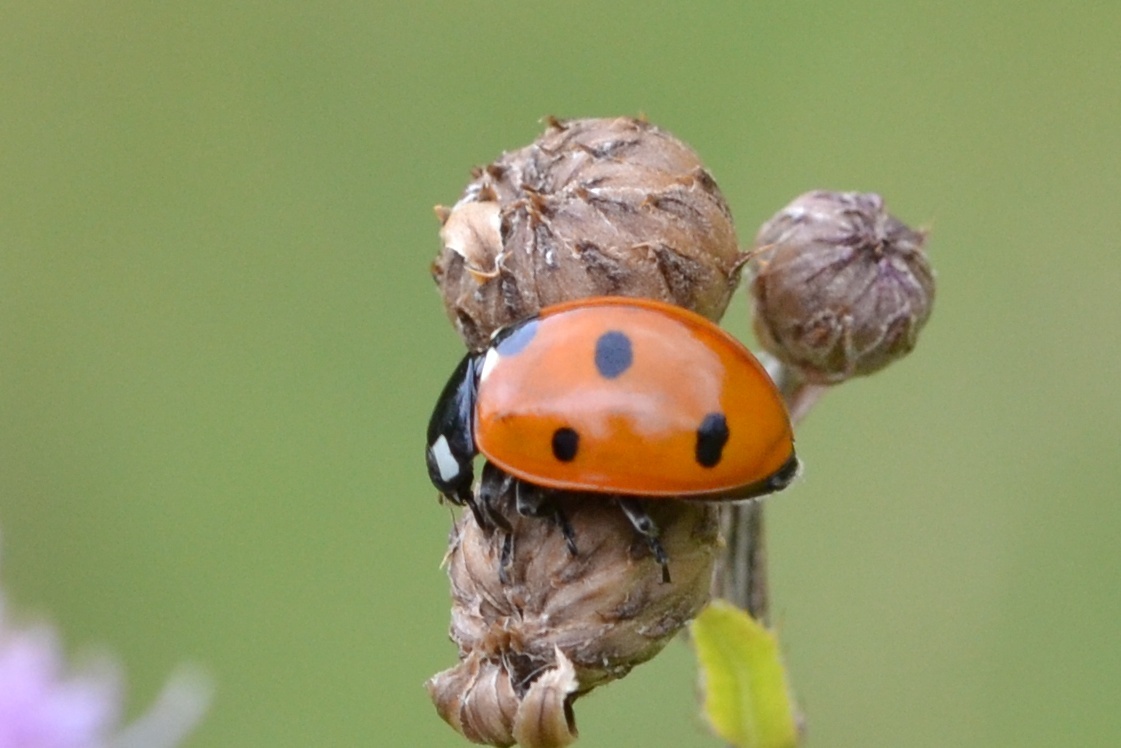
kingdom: Animalia
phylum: Arthropoda
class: Insecta
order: Coleoptera
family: Coccinellidae
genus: Coccinella
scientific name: Coccinella septempunctata
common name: Sevenspotted lady beetle
